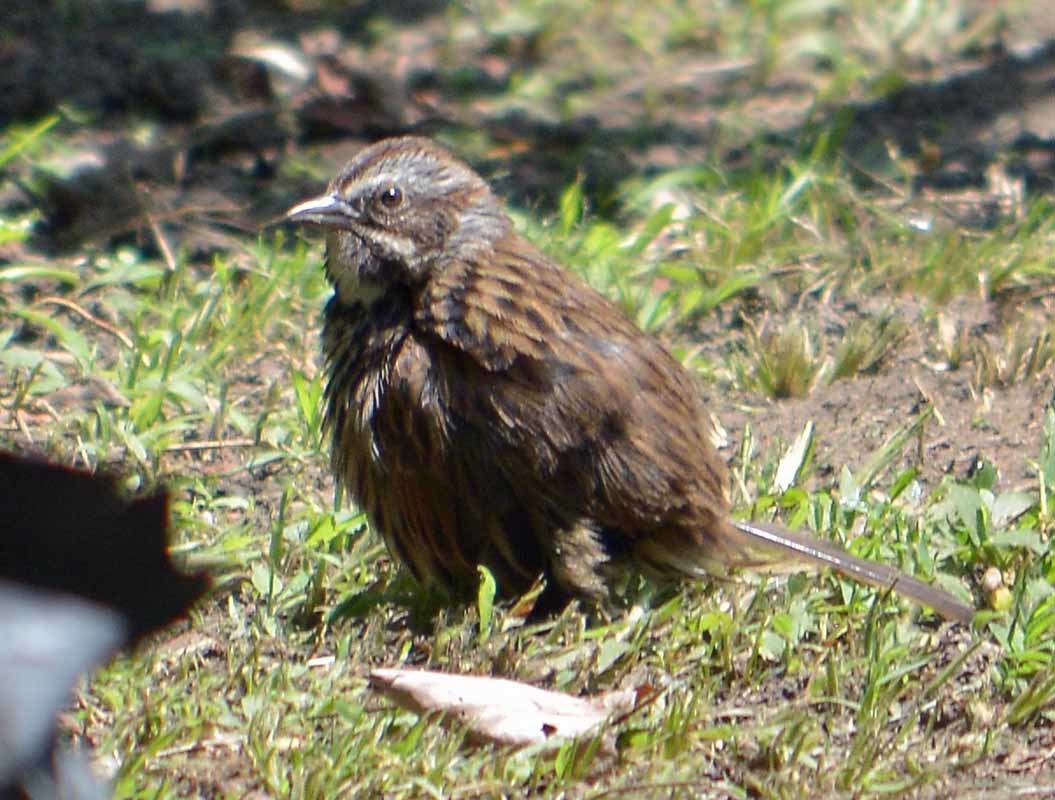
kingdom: Animalia
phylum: Chordata
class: Aves
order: Passeriformes
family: Passerellidae
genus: Melospiza
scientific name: Melospiza melodia
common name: Song sparrow
